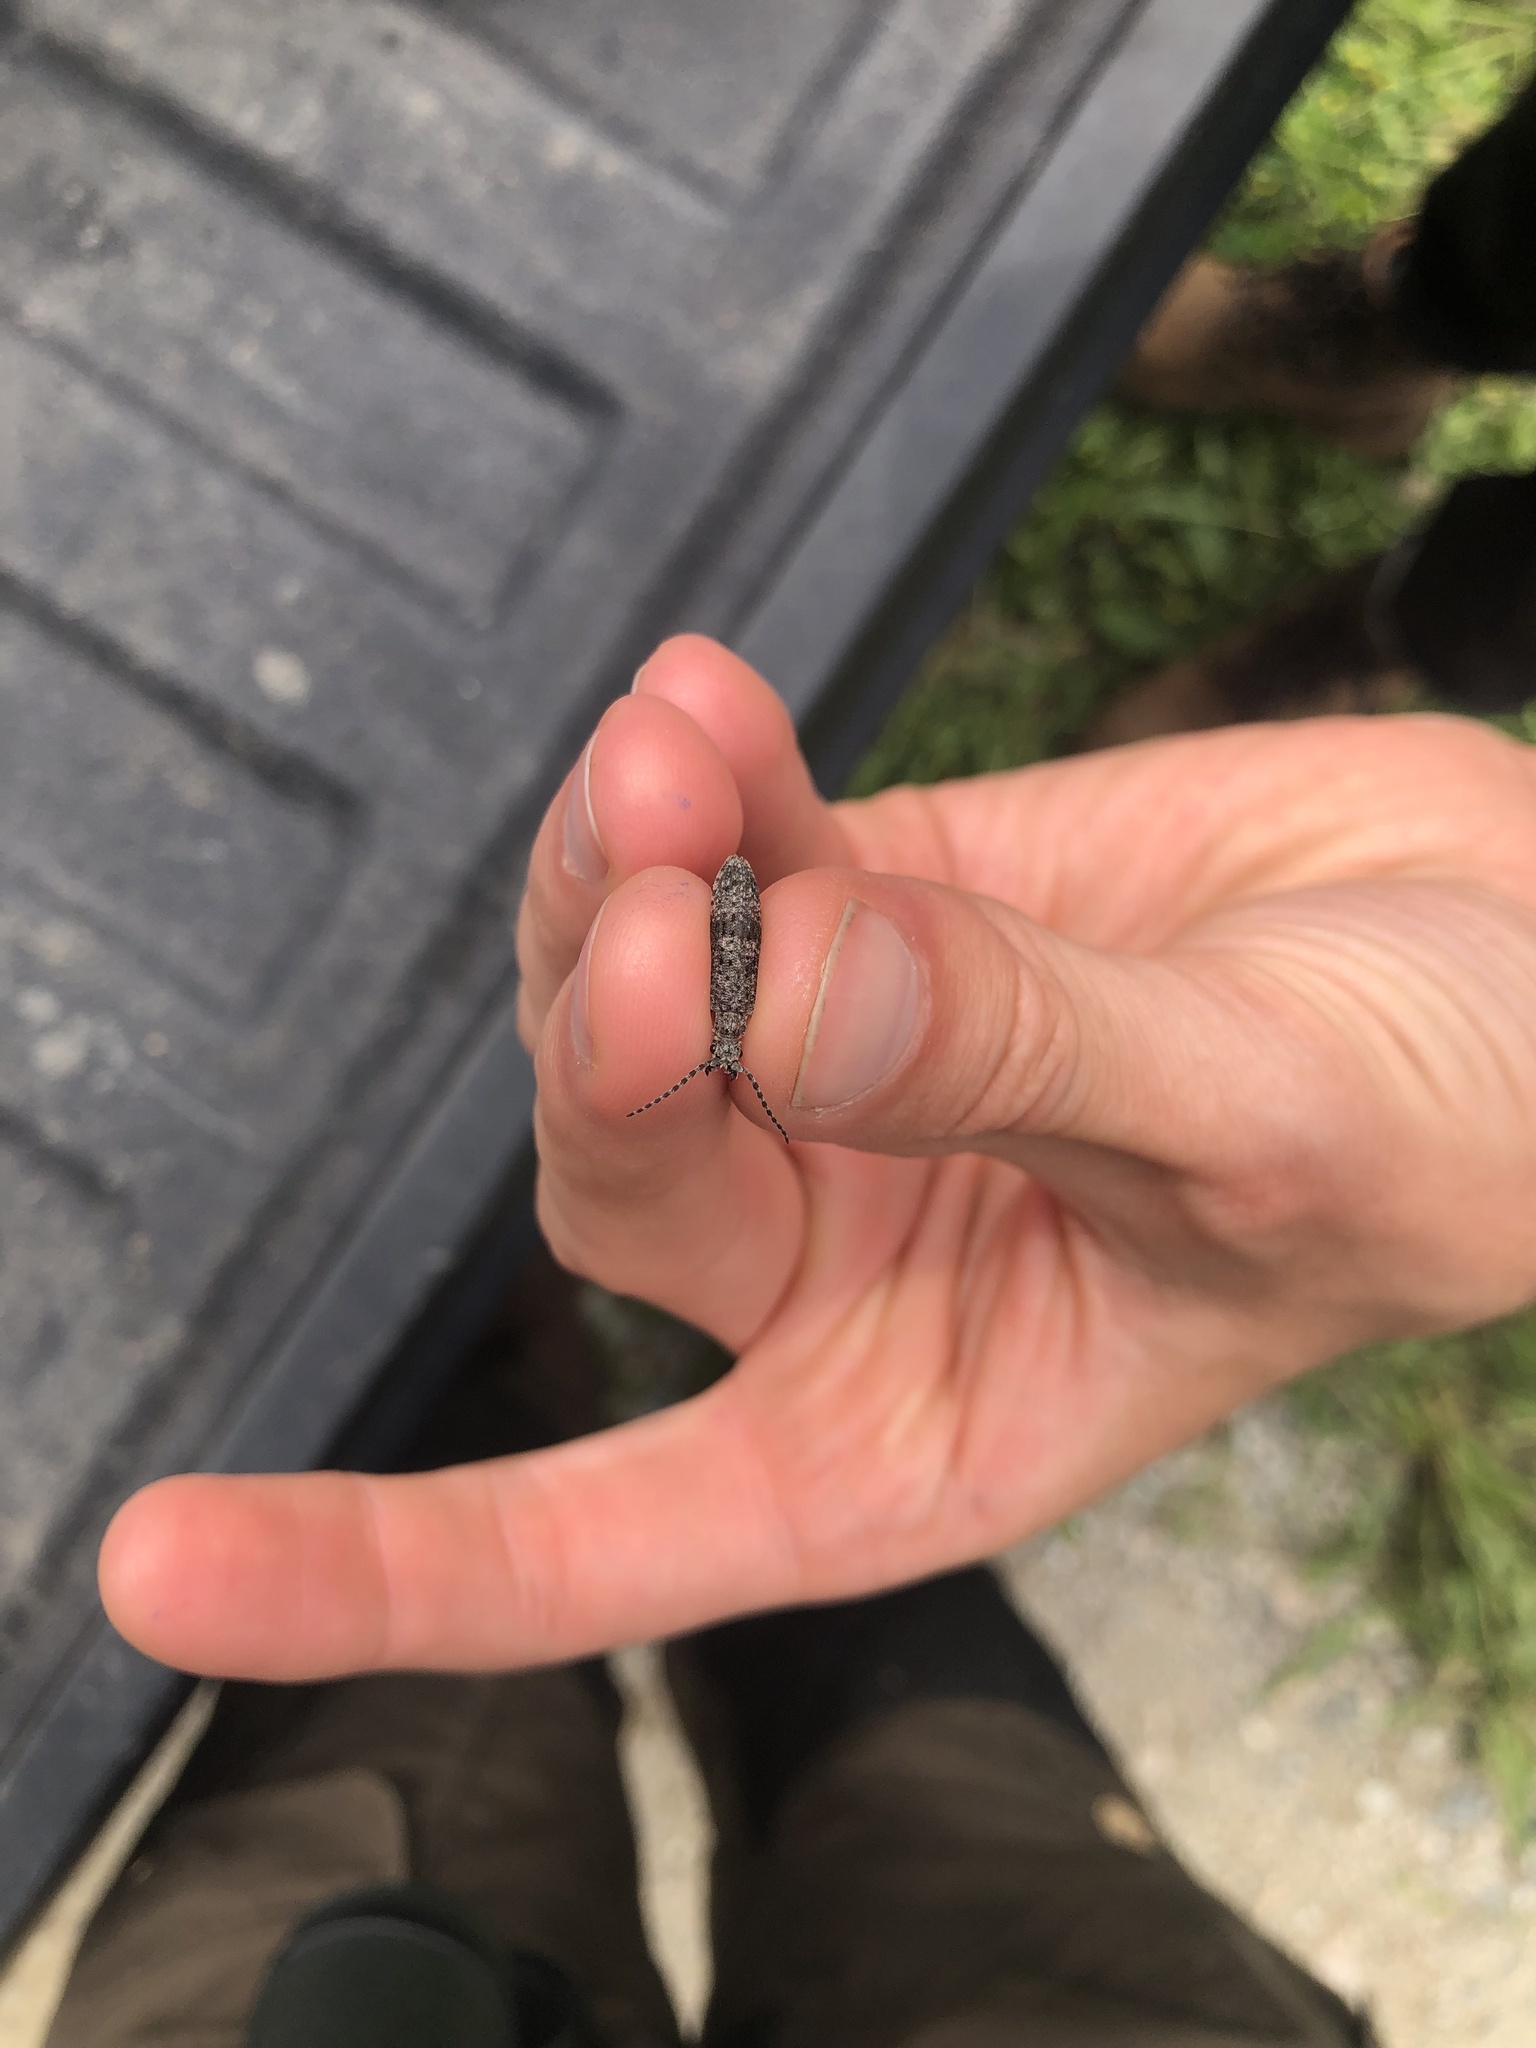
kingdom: Animalia
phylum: Arthropoda
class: Insecta
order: Coleoptera
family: Cupedidae
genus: Priacma
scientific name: Priacma serrata
